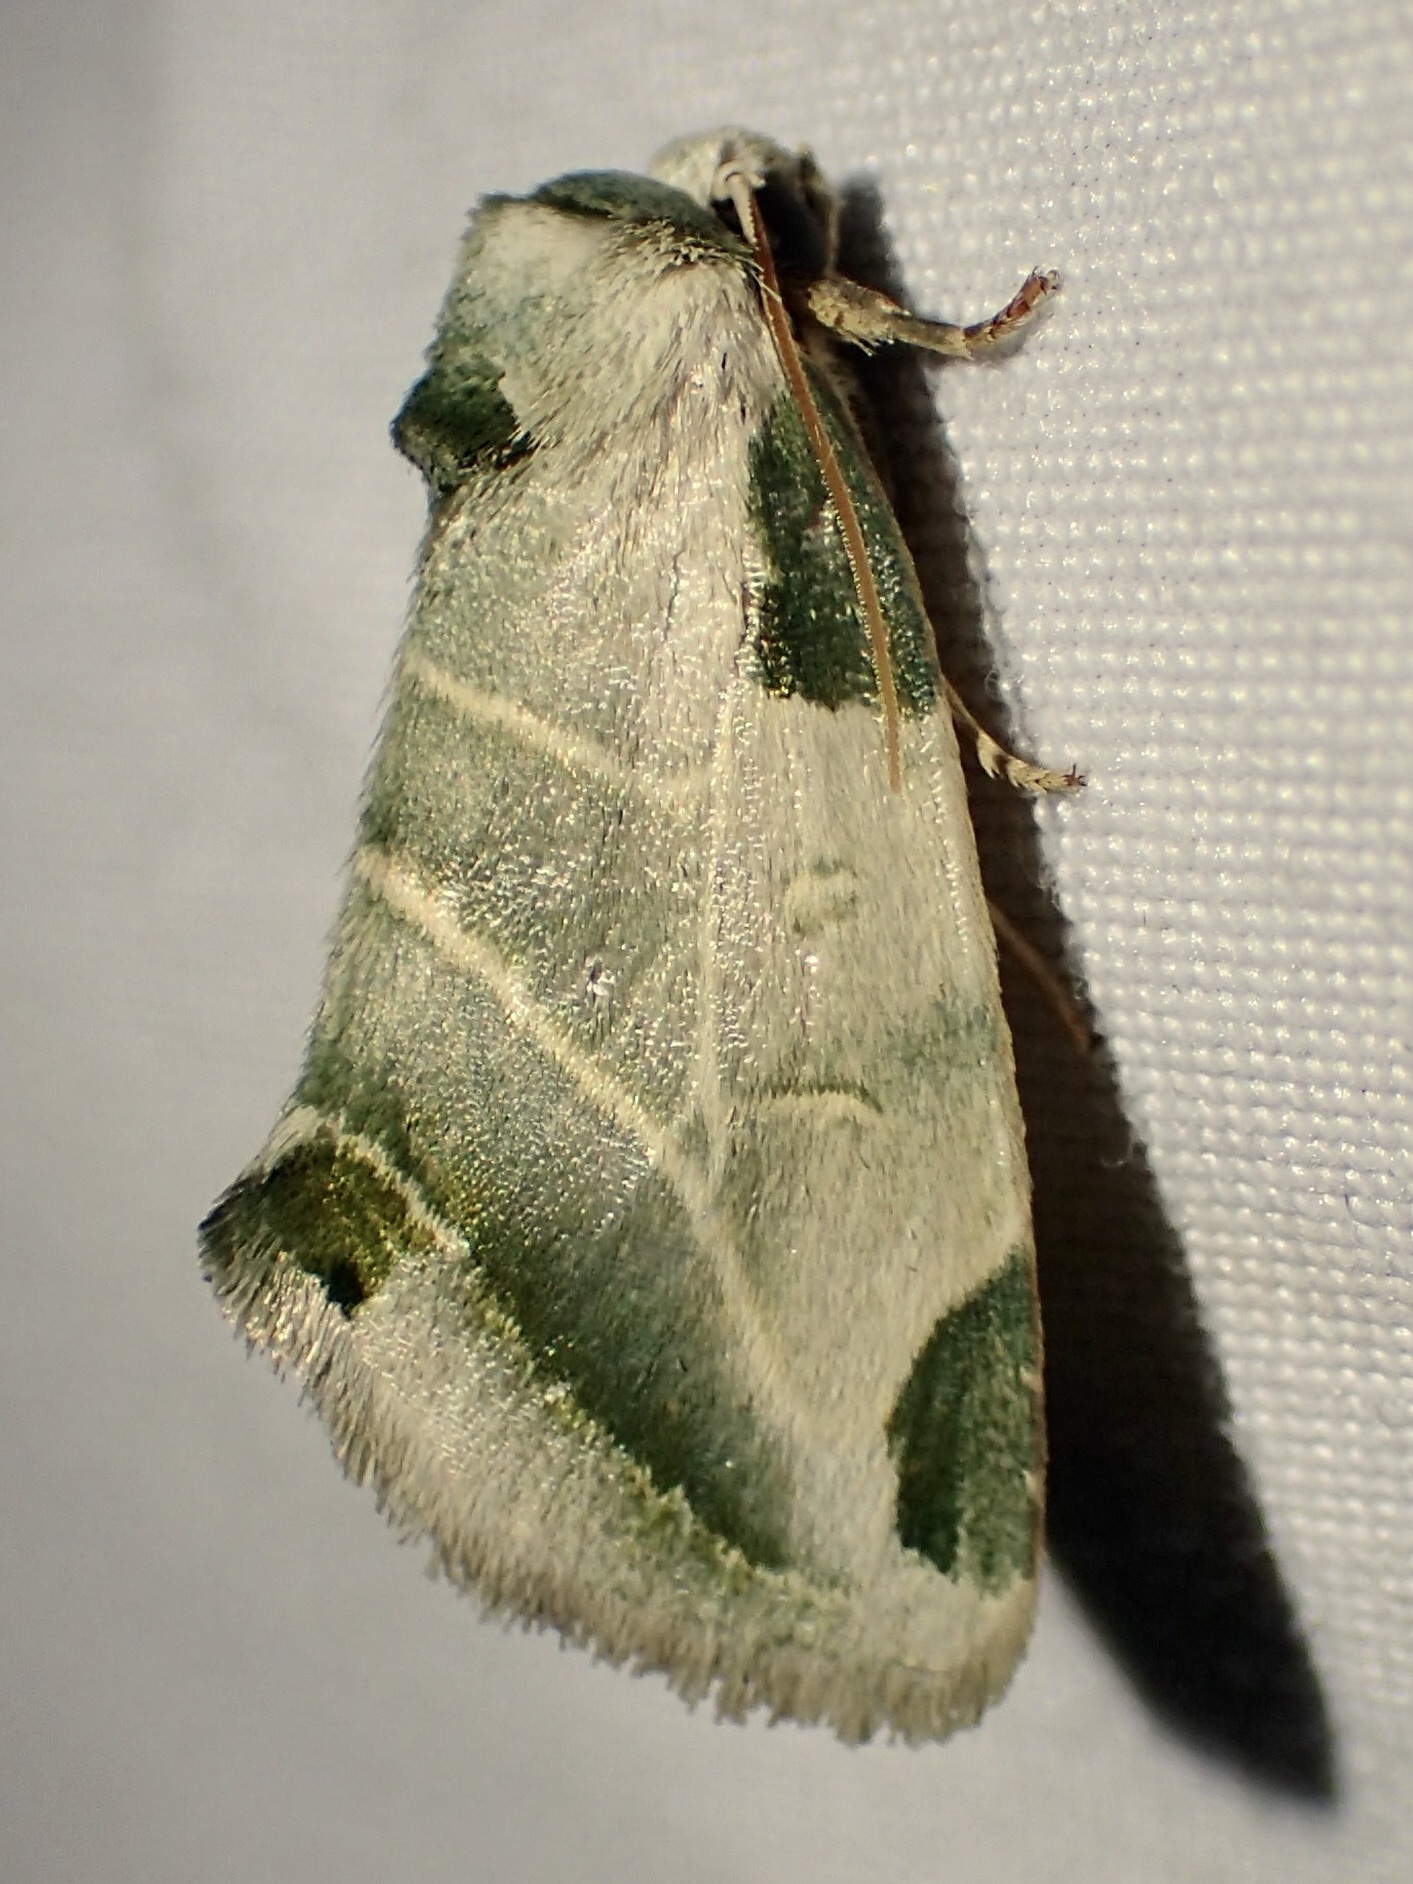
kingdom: Animalia
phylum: Arthropoda
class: Insecta
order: Lepidoptera
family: Noctuidae
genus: Heminocloa
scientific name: Heminocloa mirabilis
